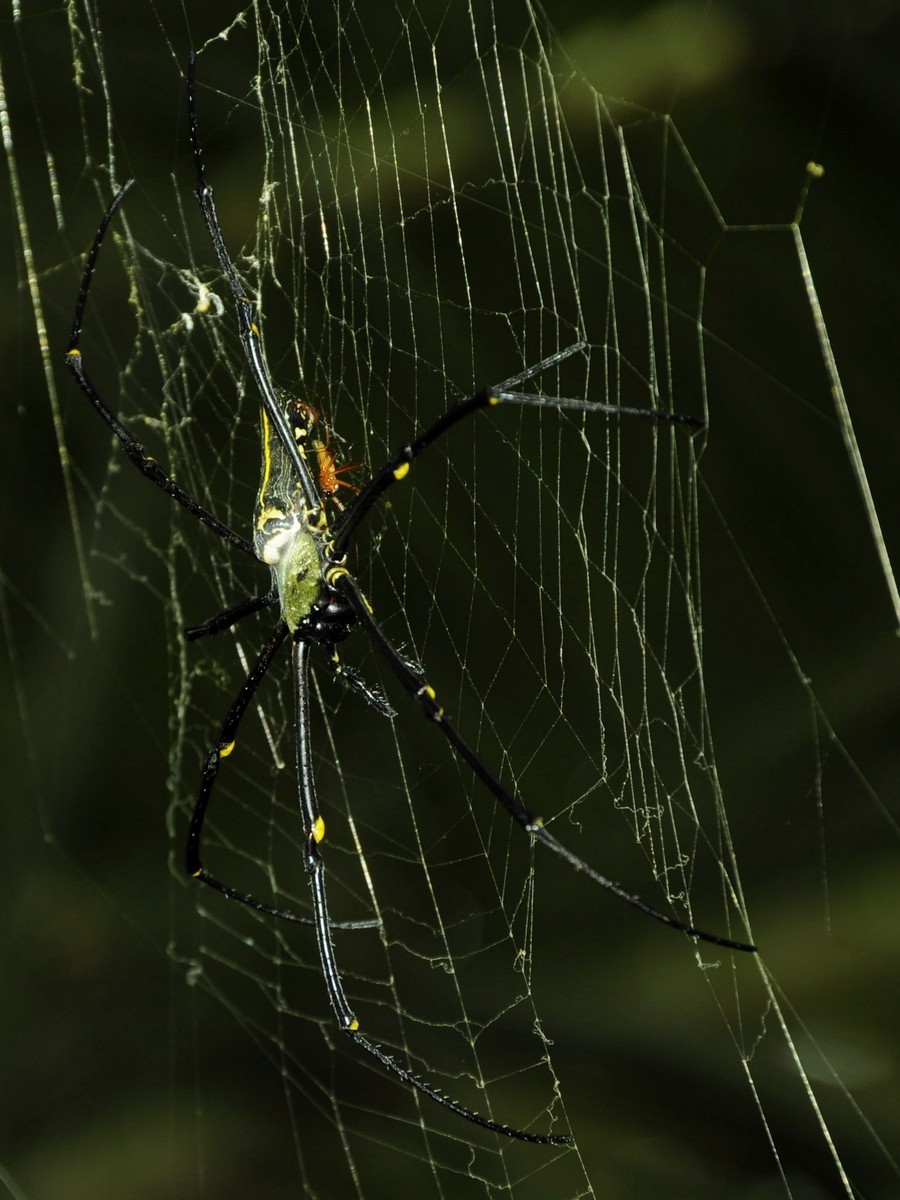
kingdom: Animalia
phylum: Arthropoda
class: Arachnida
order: Araneae
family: Araneidae
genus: Nephila
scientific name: Nephila pilipes
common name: Giant golden orb weaver
